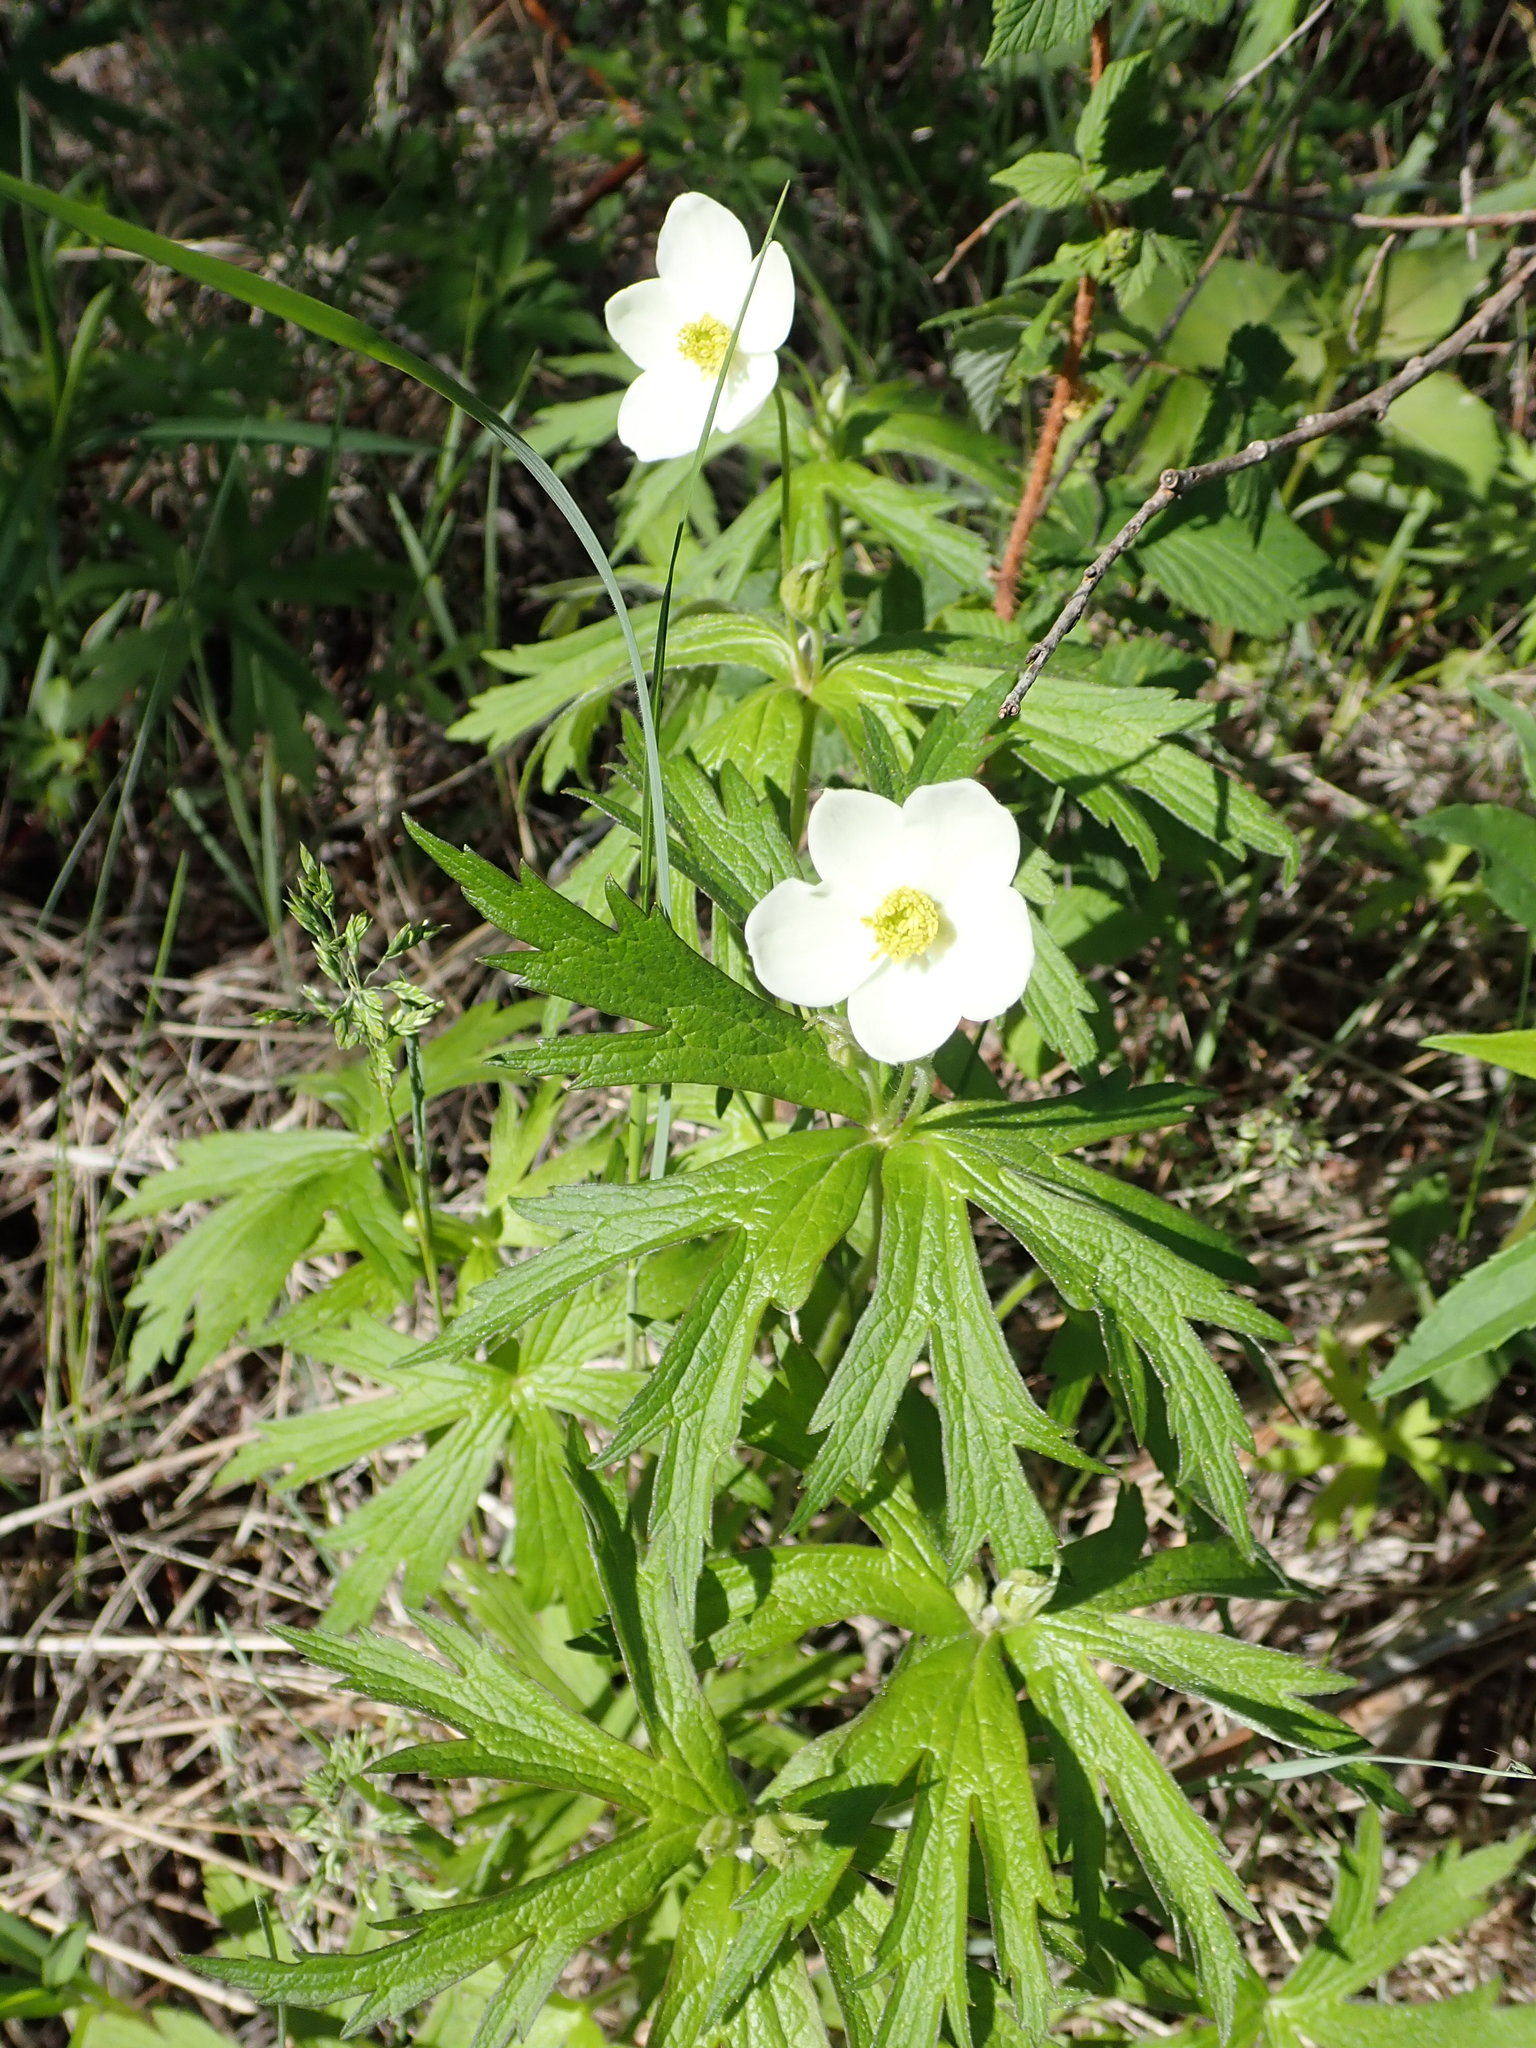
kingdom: Plantae
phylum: Tracheophyta
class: Magnoliopsida
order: Ranunculales
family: Ranunculaceae
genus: Anemonastrum
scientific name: Anemonastrum canadense
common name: Canada anemone
